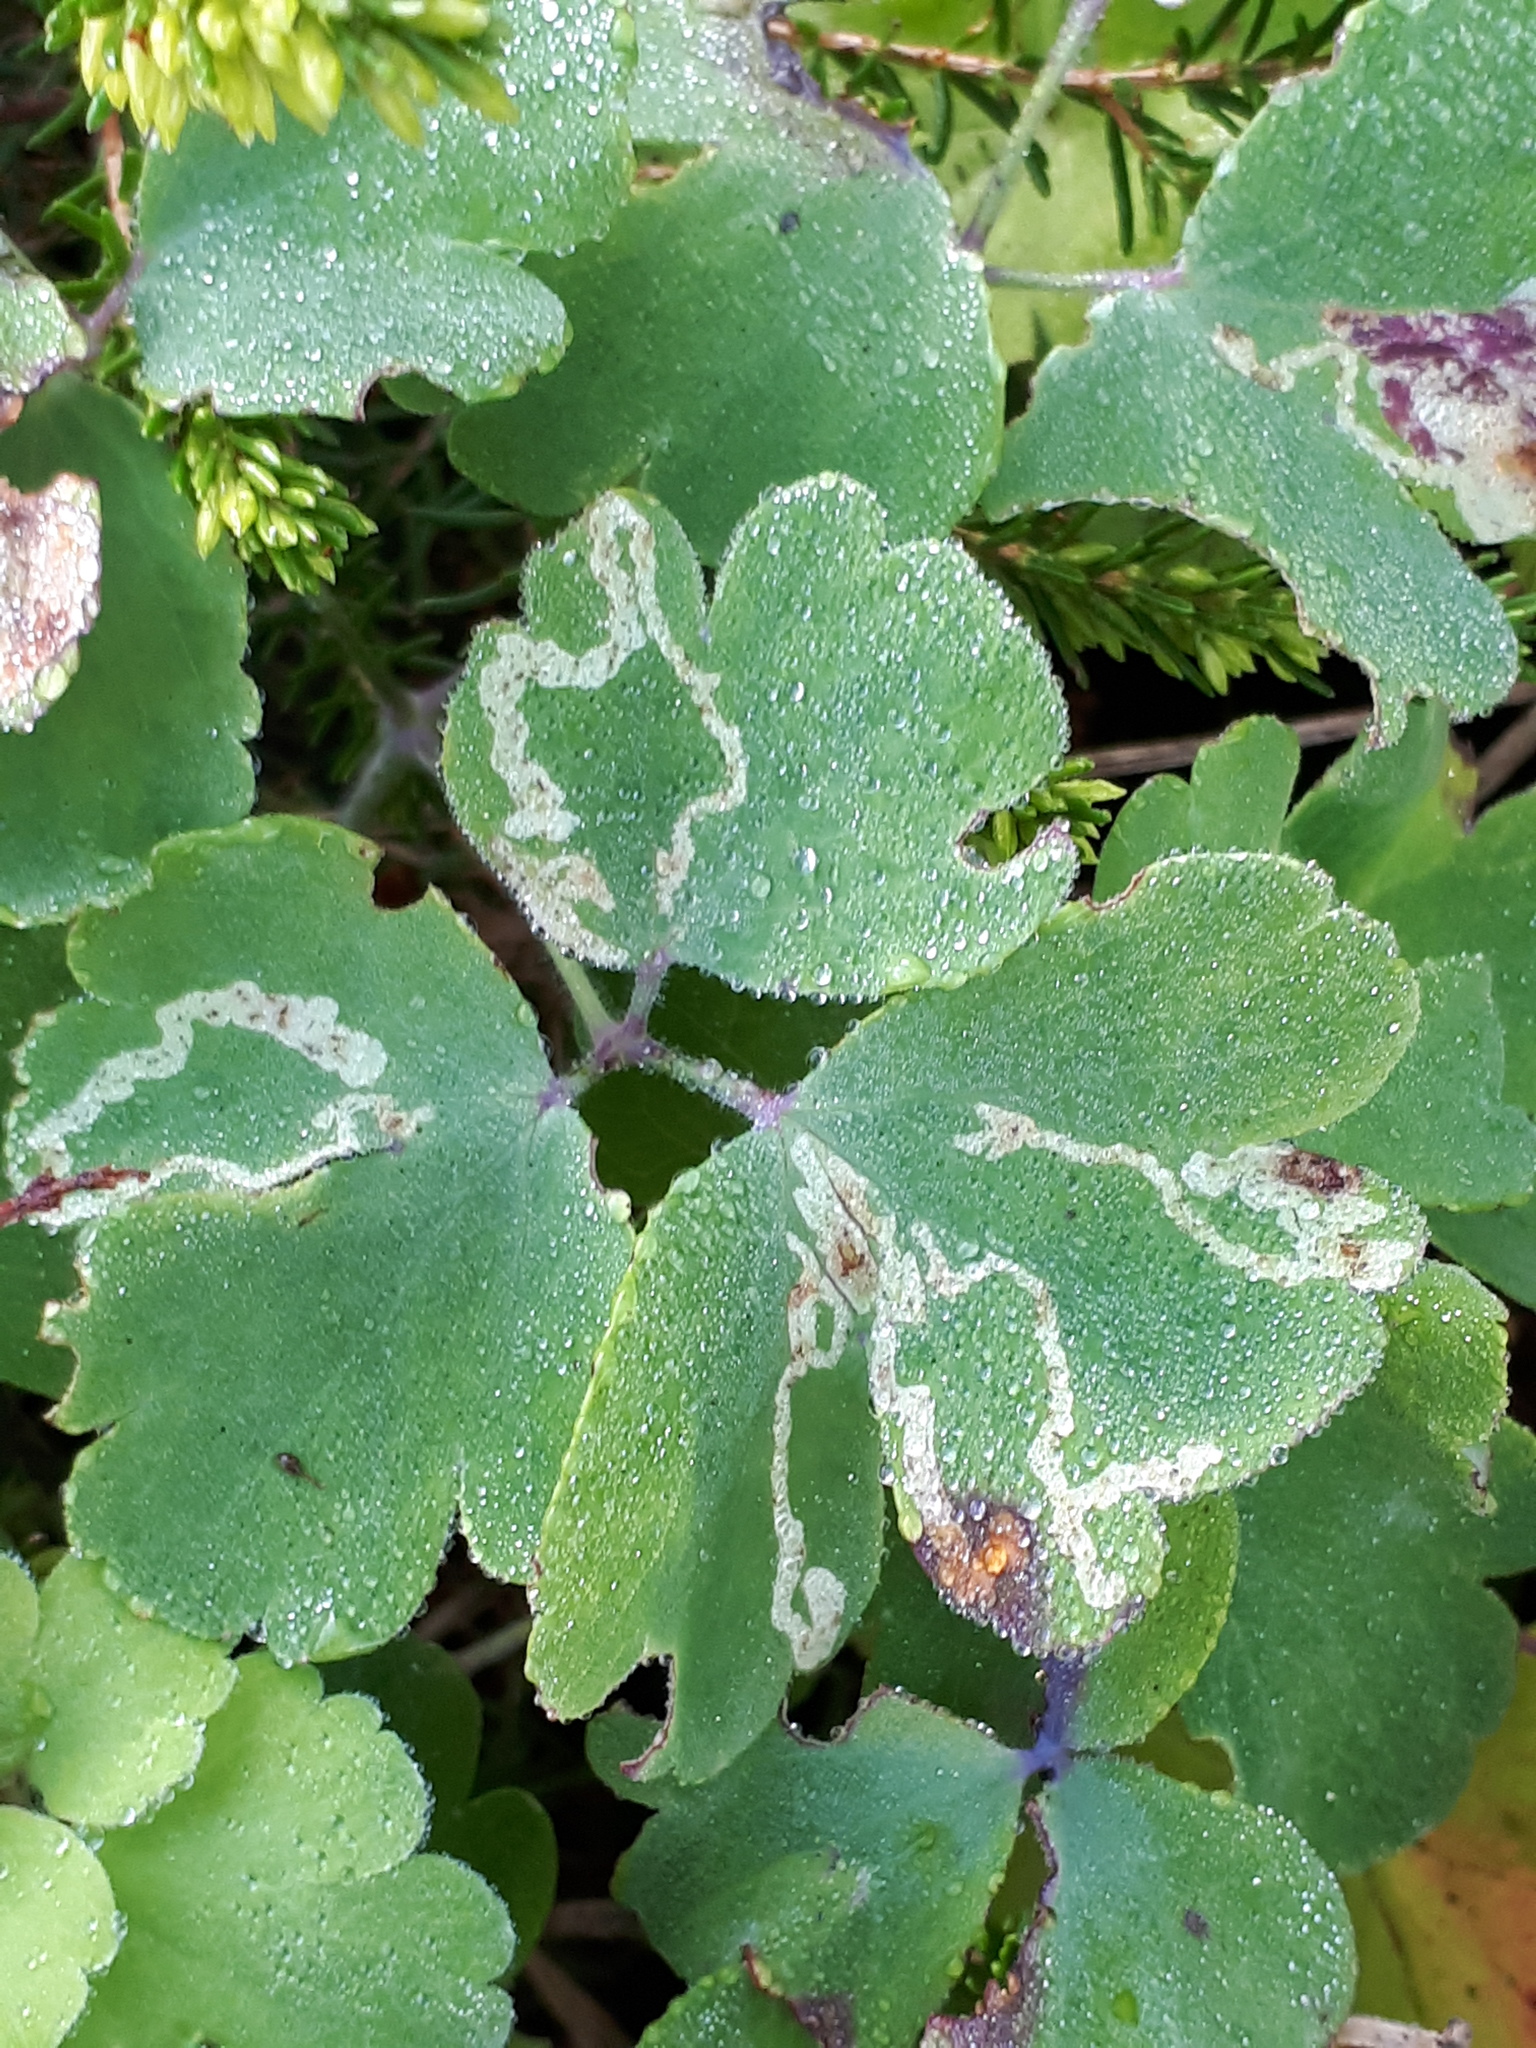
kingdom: Animalia
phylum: Arthropoda
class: Insecta
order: Diptera
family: Agromyzidae
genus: Phytomyza
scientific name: Phytomyza ancholiae
